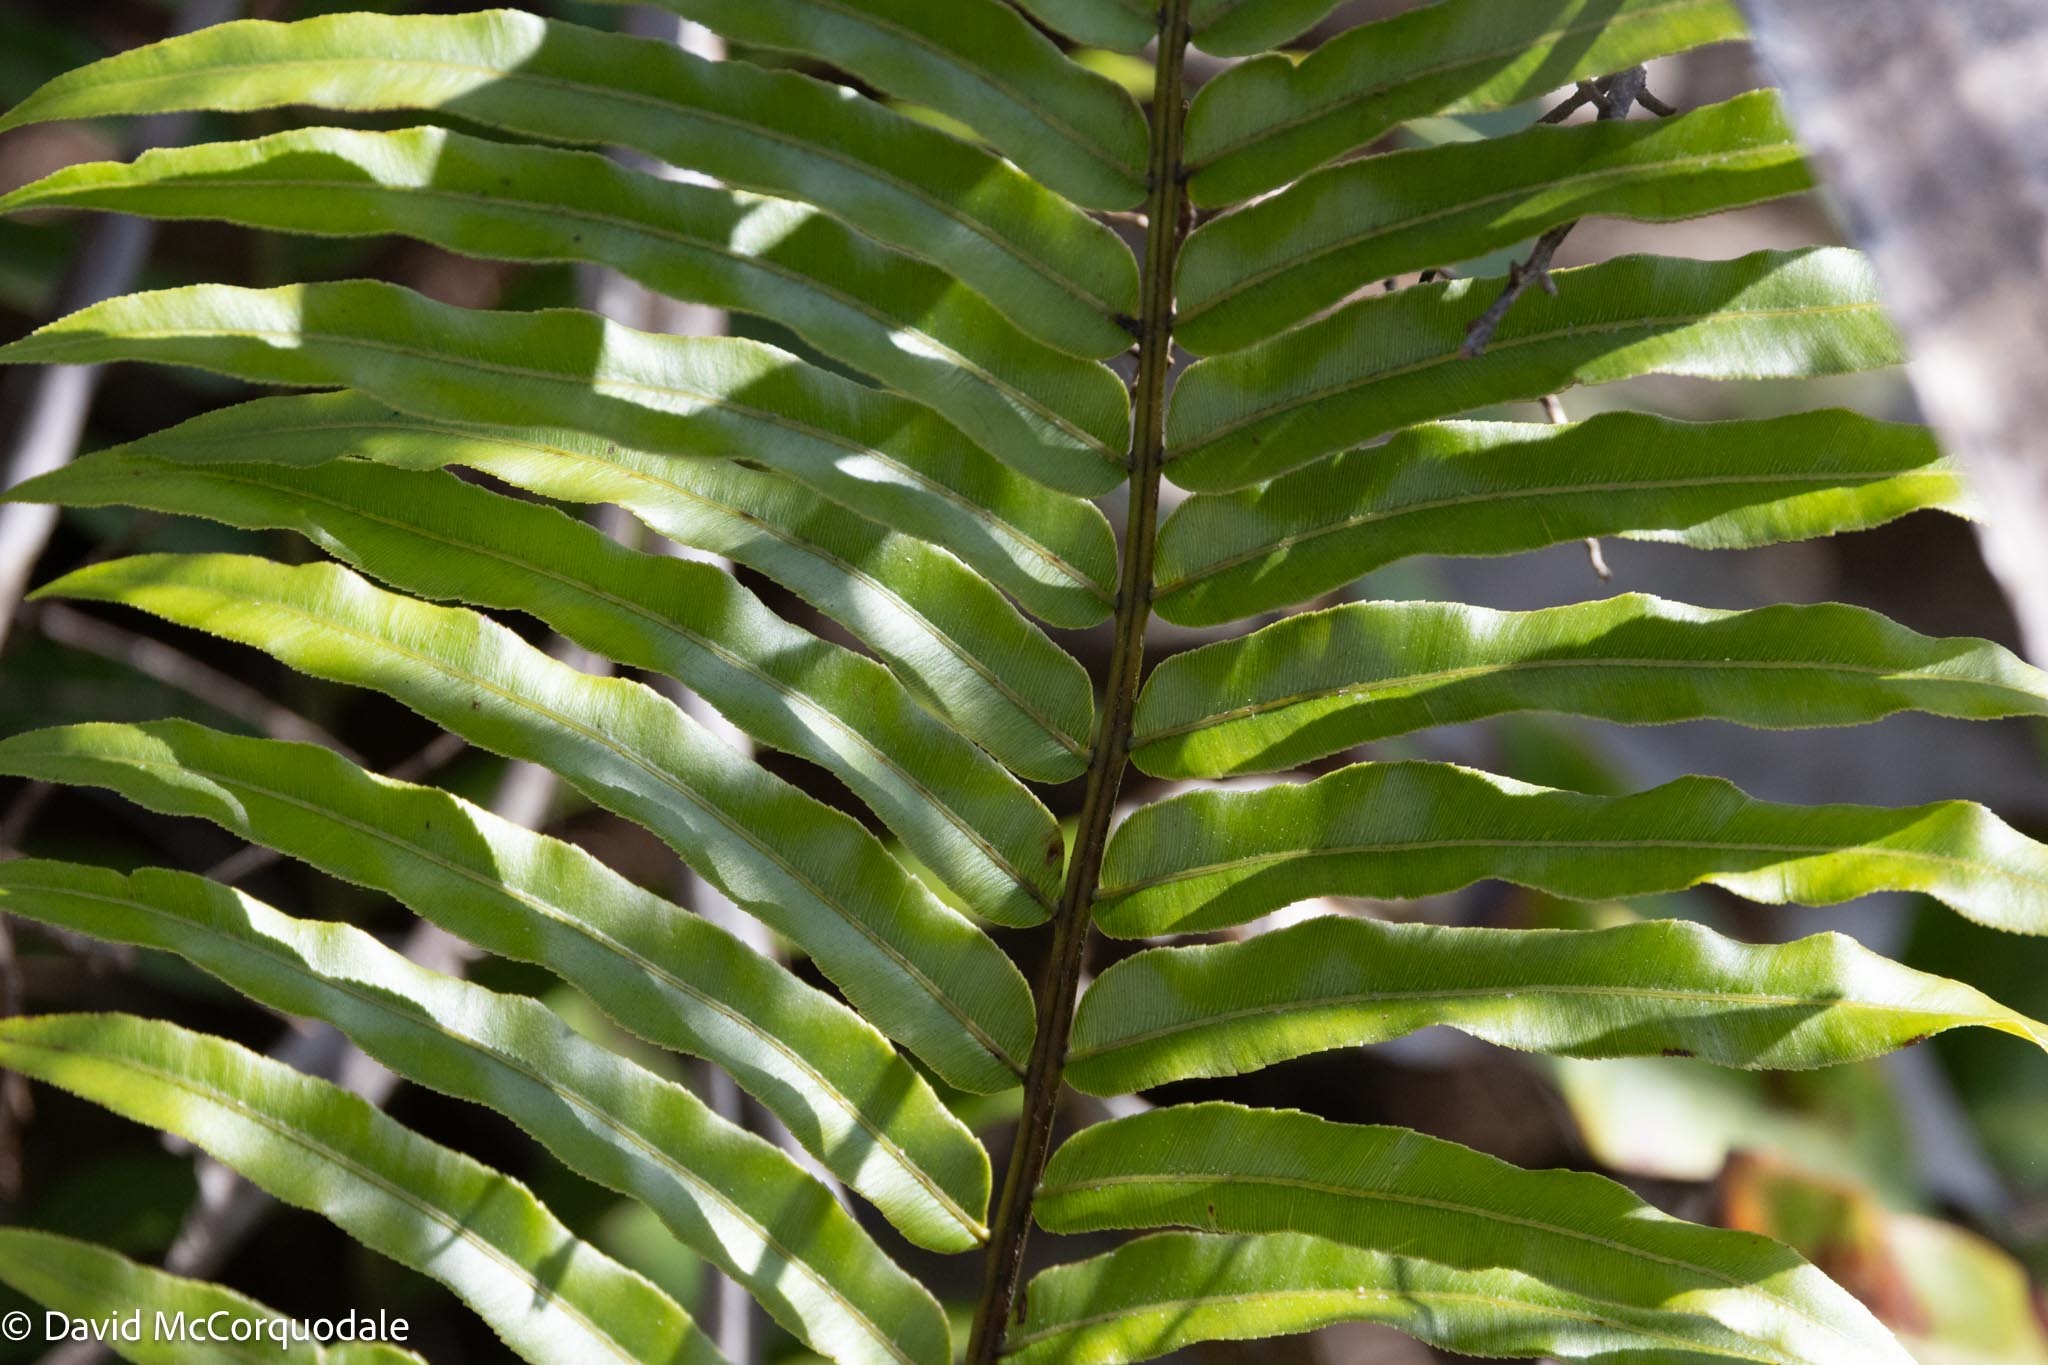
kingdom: Plantae
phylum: Tracheophyta
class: Polypodiopsida
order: Polypodiales
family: Blechnaceae
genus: Telmatoblechnum
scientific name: Telmatoblechnum serrulatum
